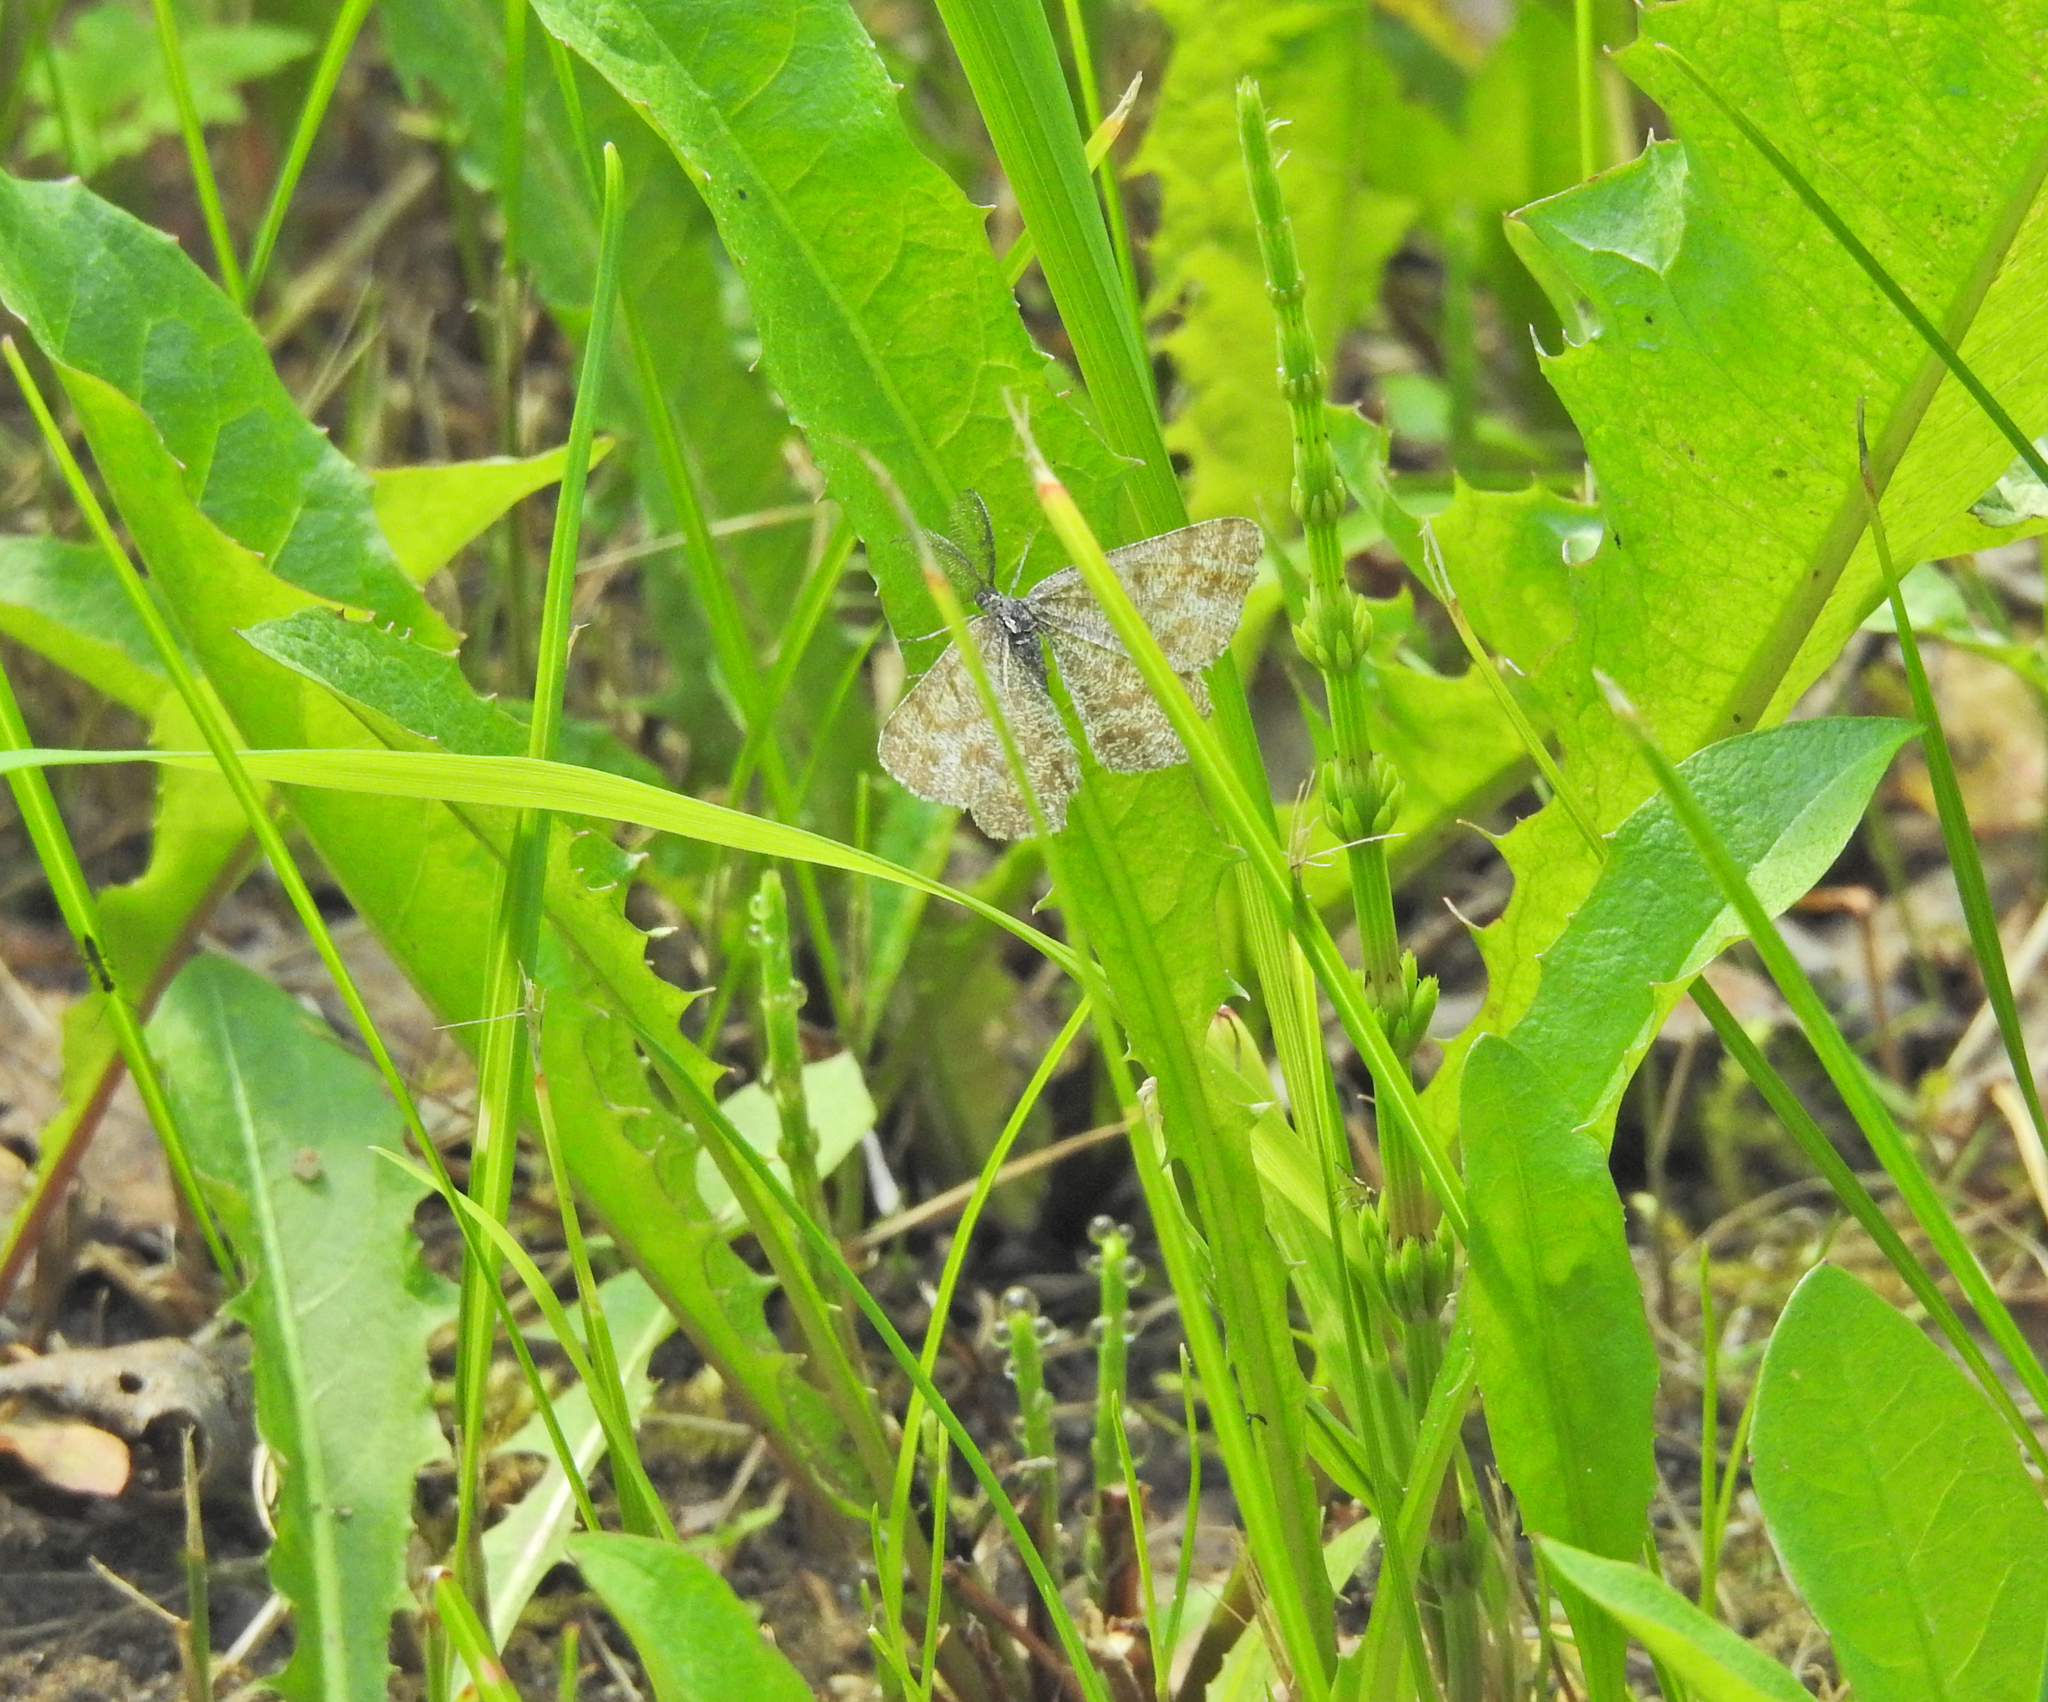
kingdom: Animalia
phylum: Arthropoda
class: Insecta
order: Lepidoptera
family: Geometridae
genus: Ematurga
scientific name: Ematurga atomaria
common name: Common heath
